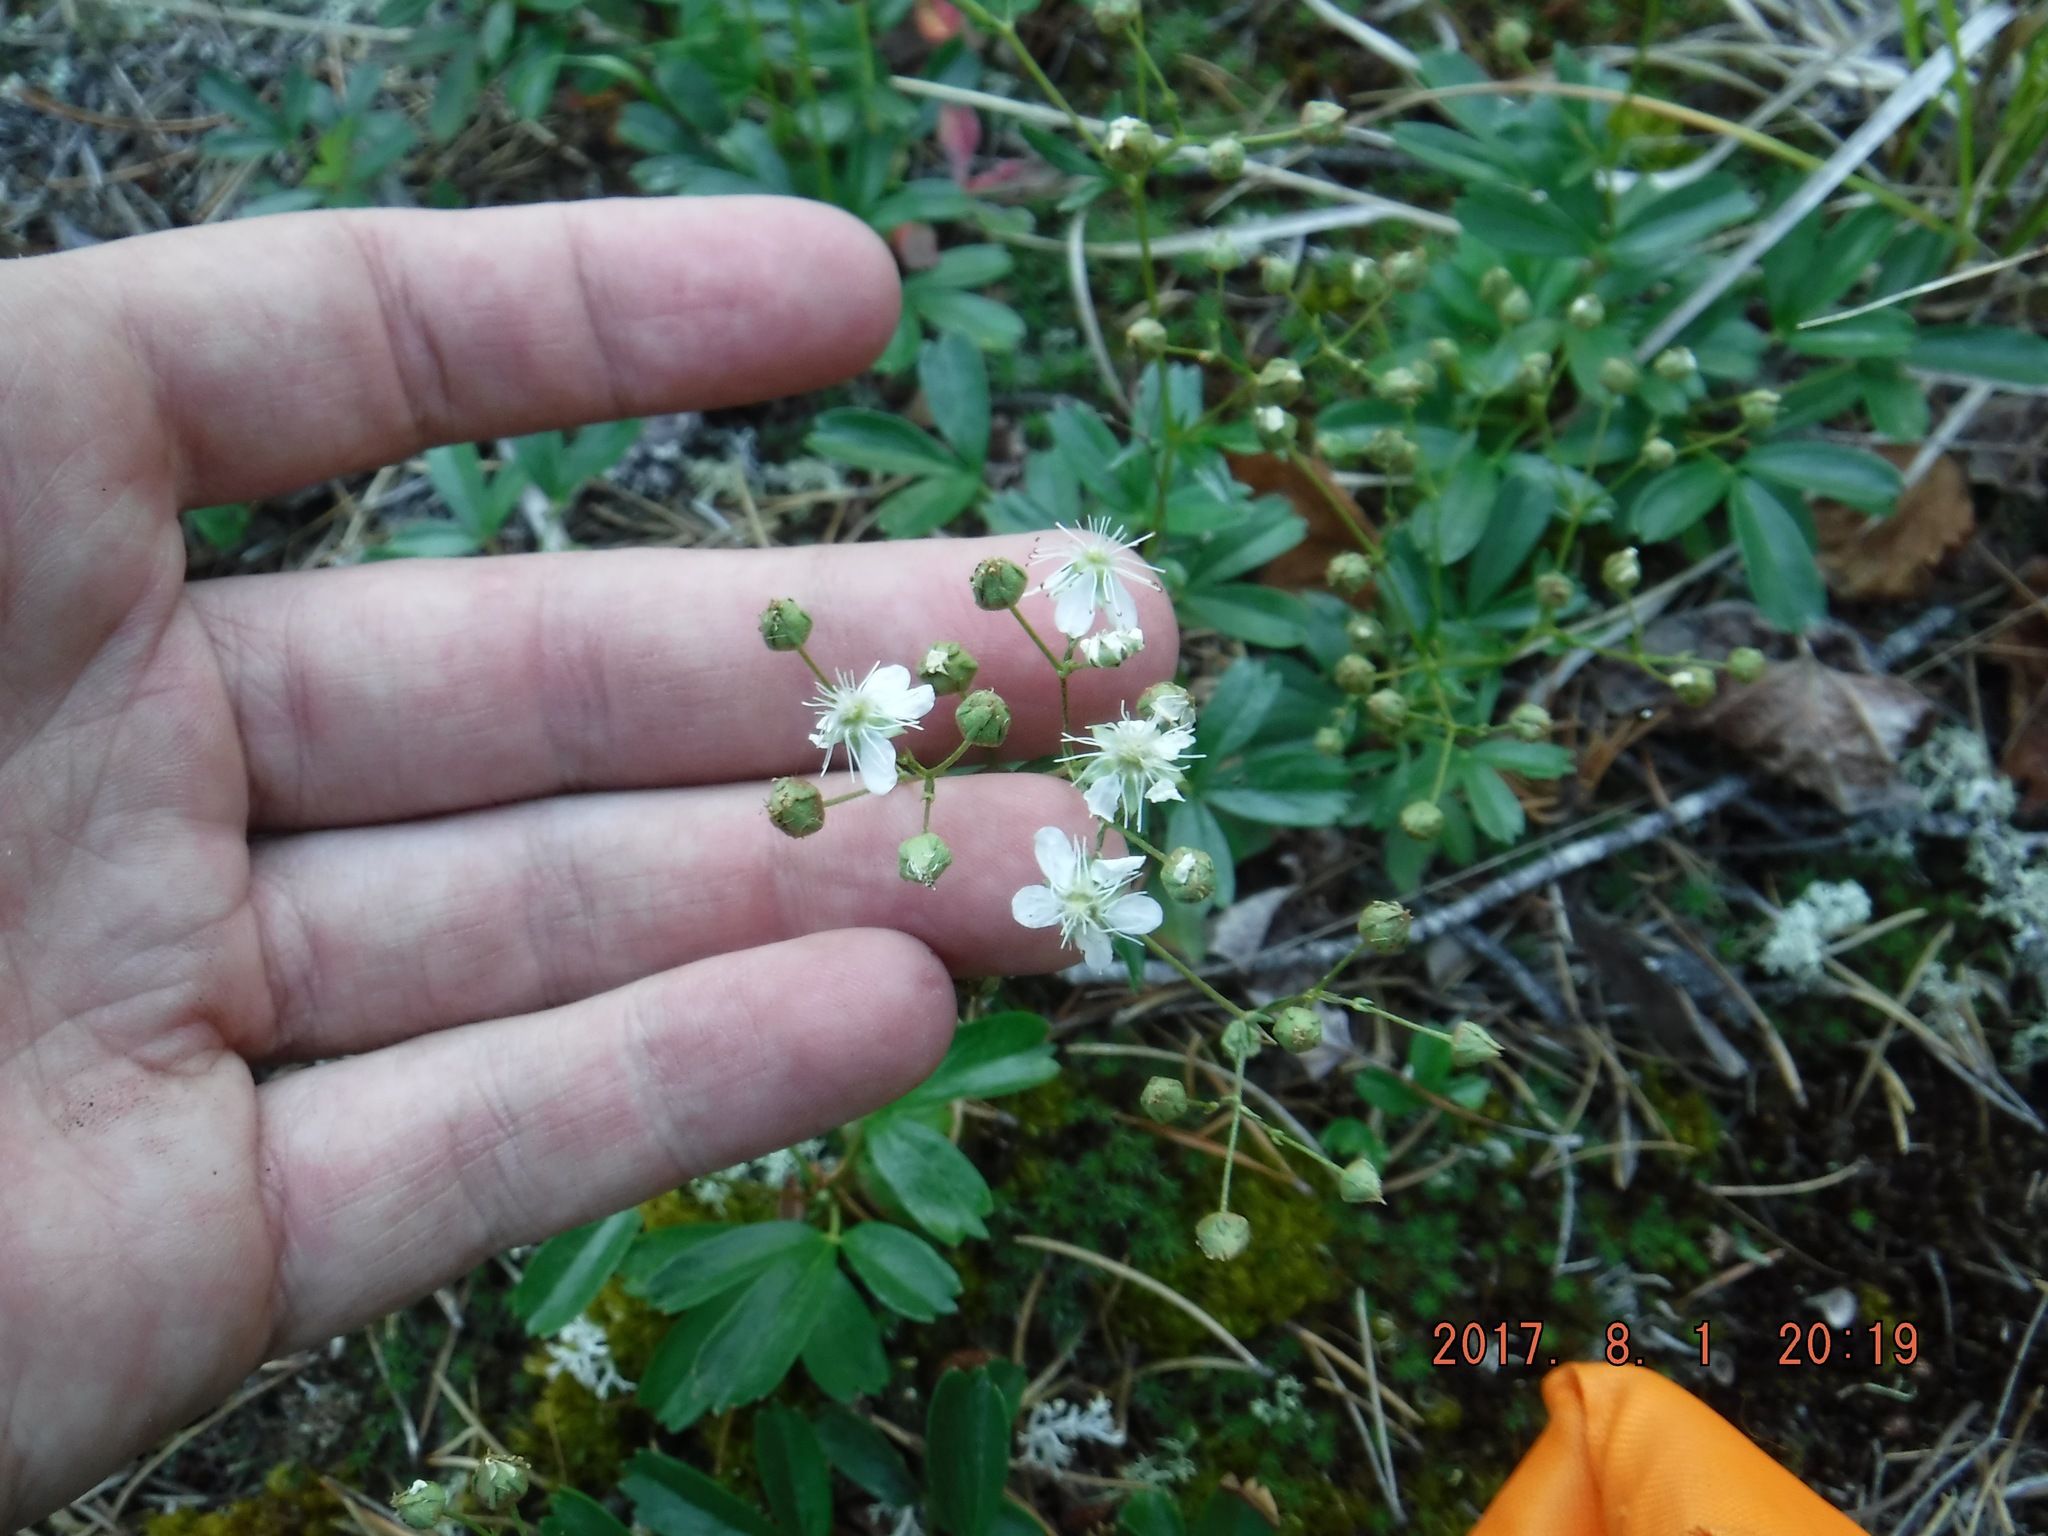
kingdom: Plantae
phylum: Tracheophyta
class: Magnoliopsida
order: Rosales
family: Rosaceae
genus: Sibbaldia
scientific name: Sibbaldia tridentata
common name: Three-toothed cinquefoil
